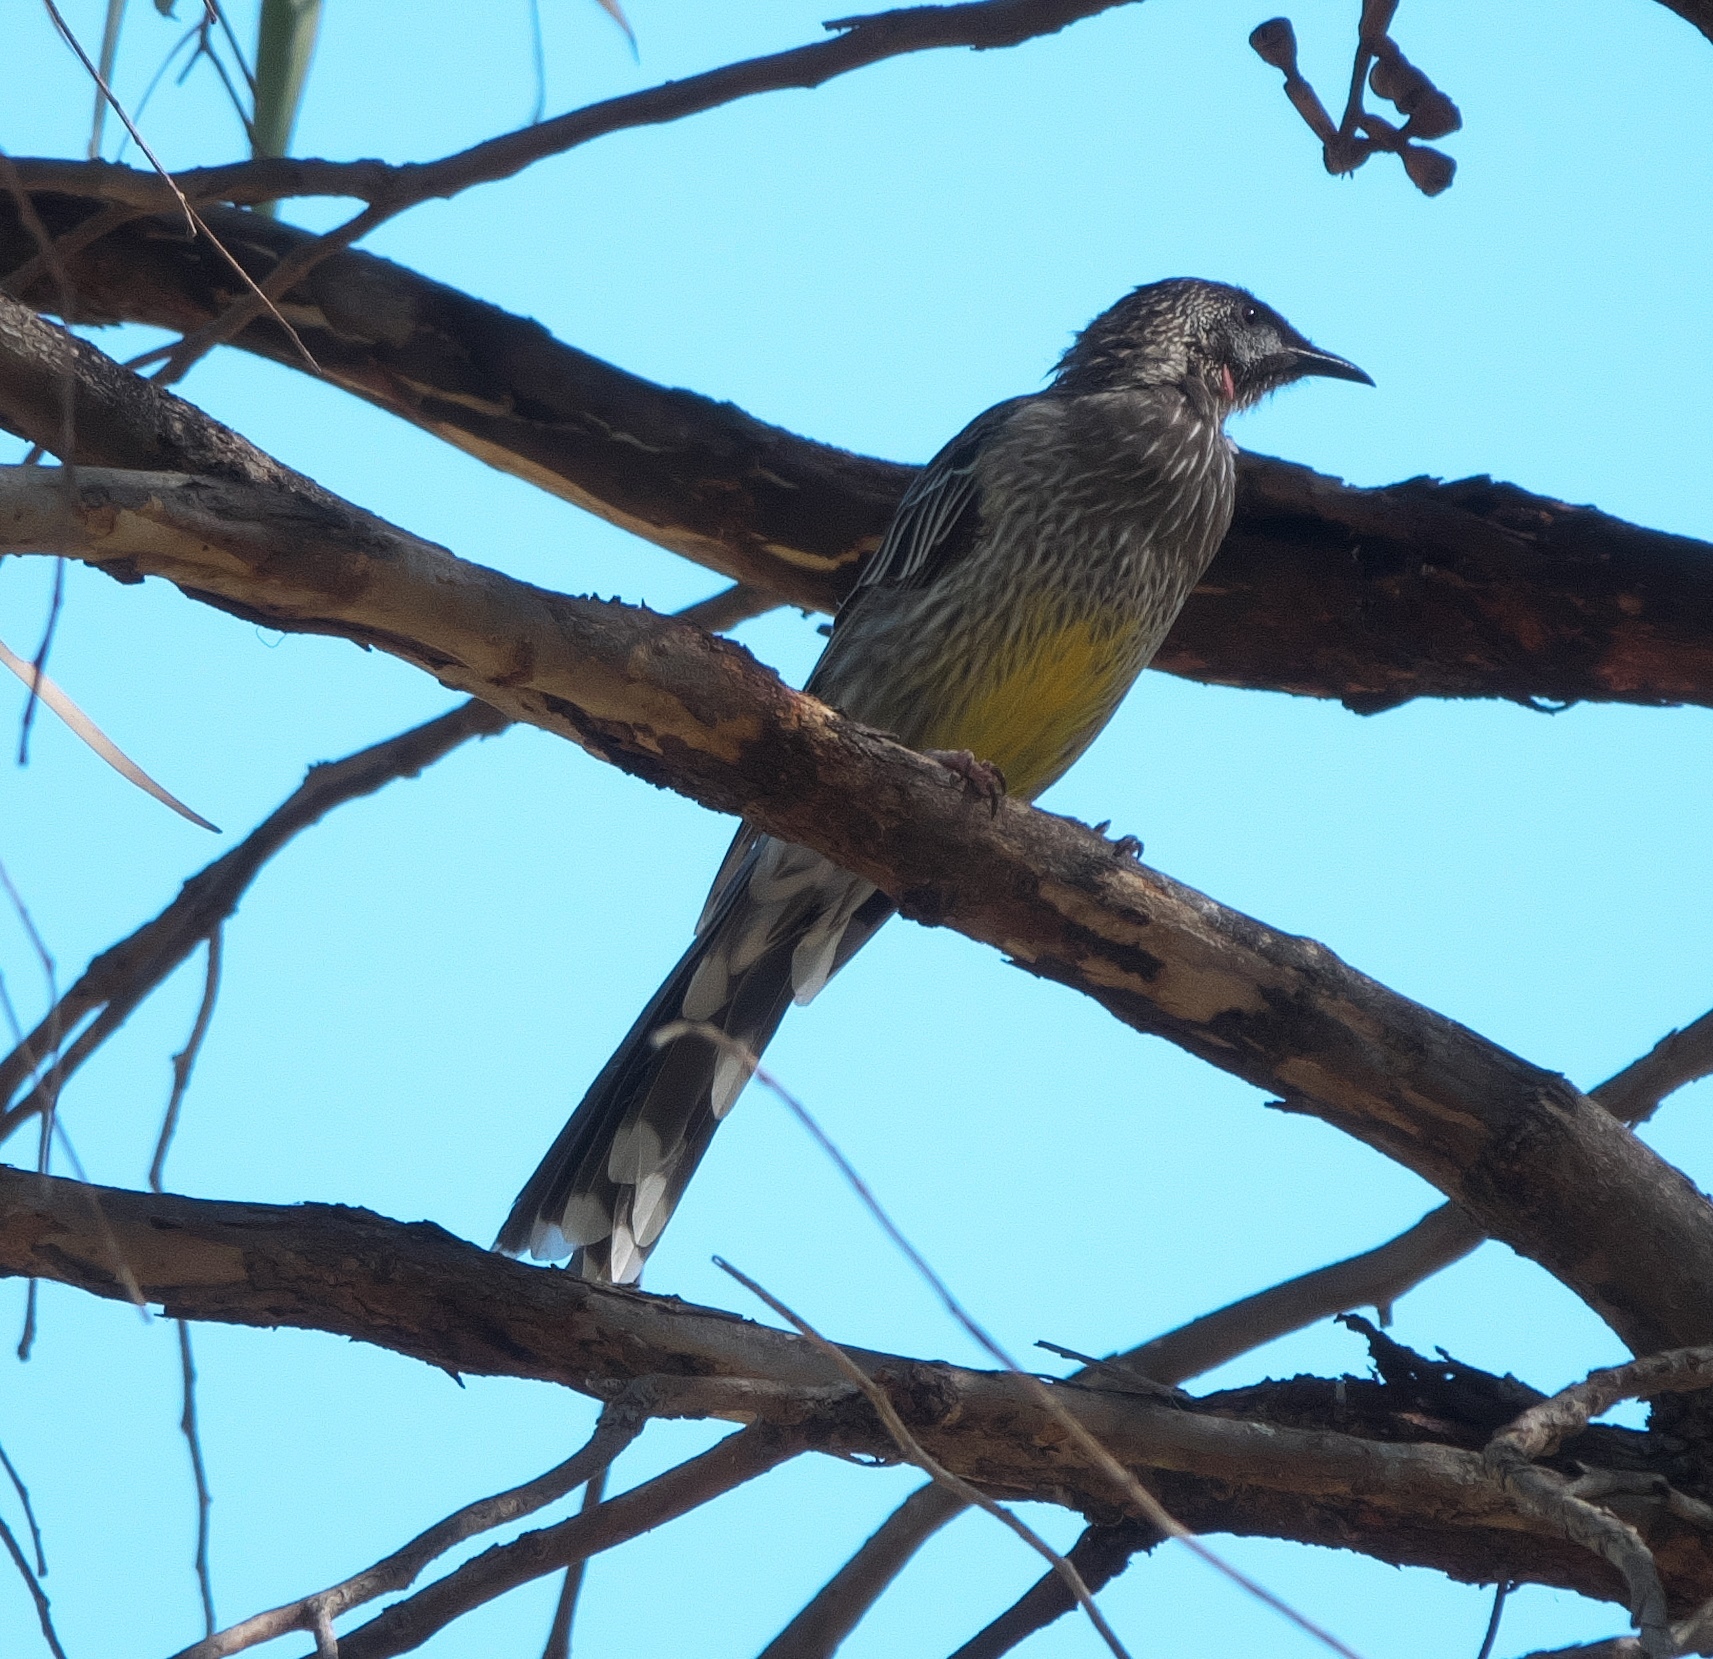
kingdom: Animalia
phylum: Chordata
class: Aves
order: Passeriformes
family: Meliphagidae
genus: Anthochaera
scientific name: Anthochaera carunculata
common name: Red wattlebird
